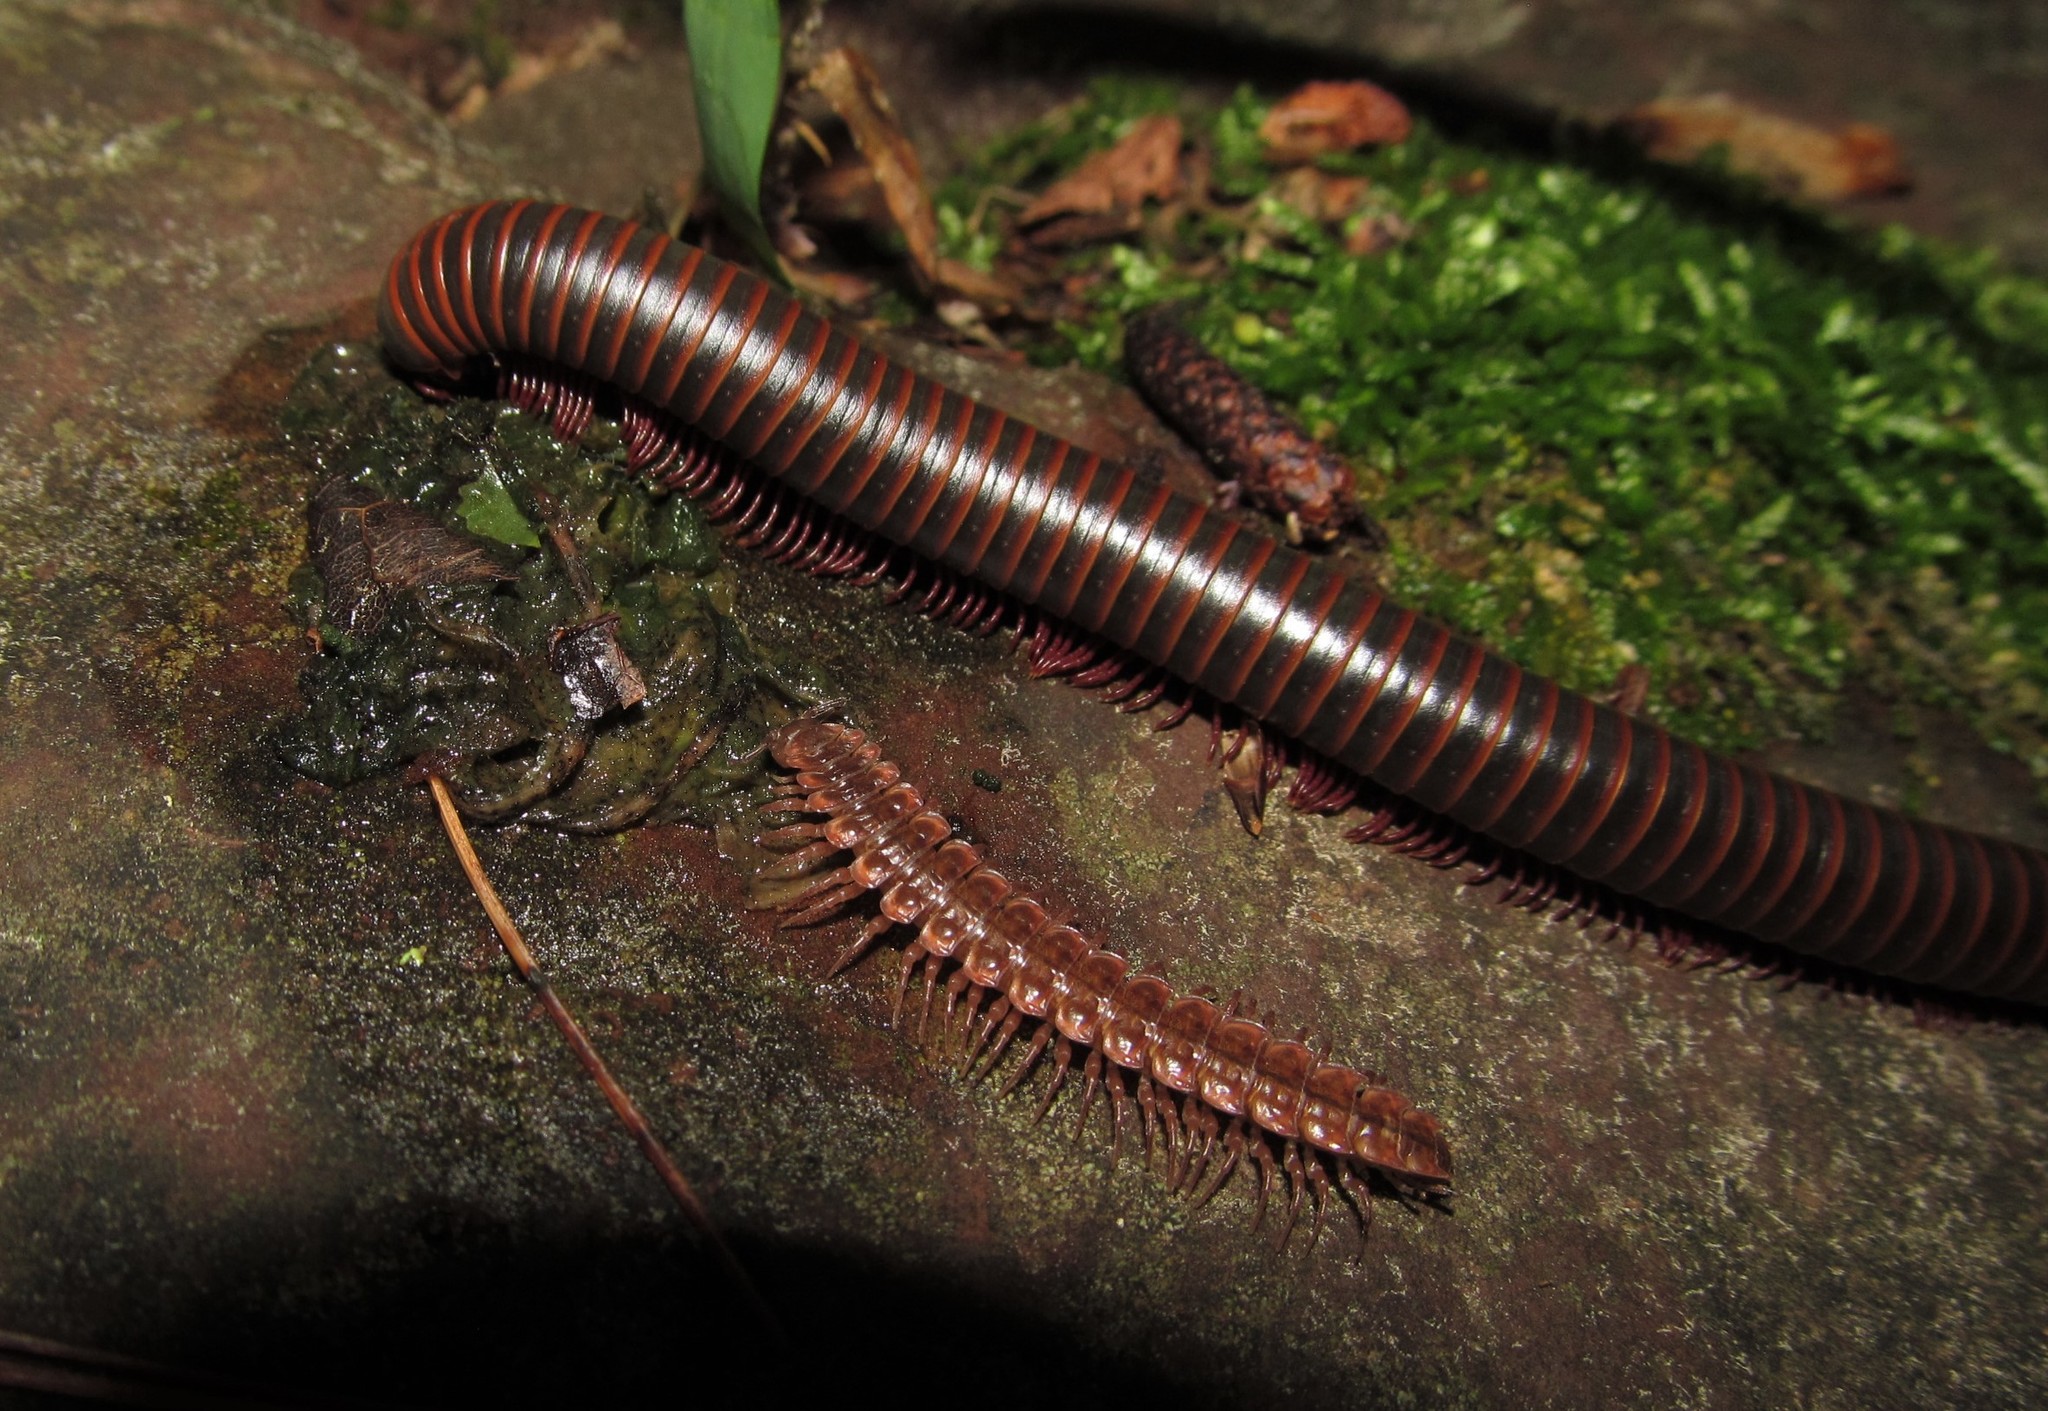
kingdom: Animalia
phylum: Arthropoda
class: Diplopoda
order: Spirobolida
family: Spirobolidae
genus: Narceus
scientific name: Narceus
